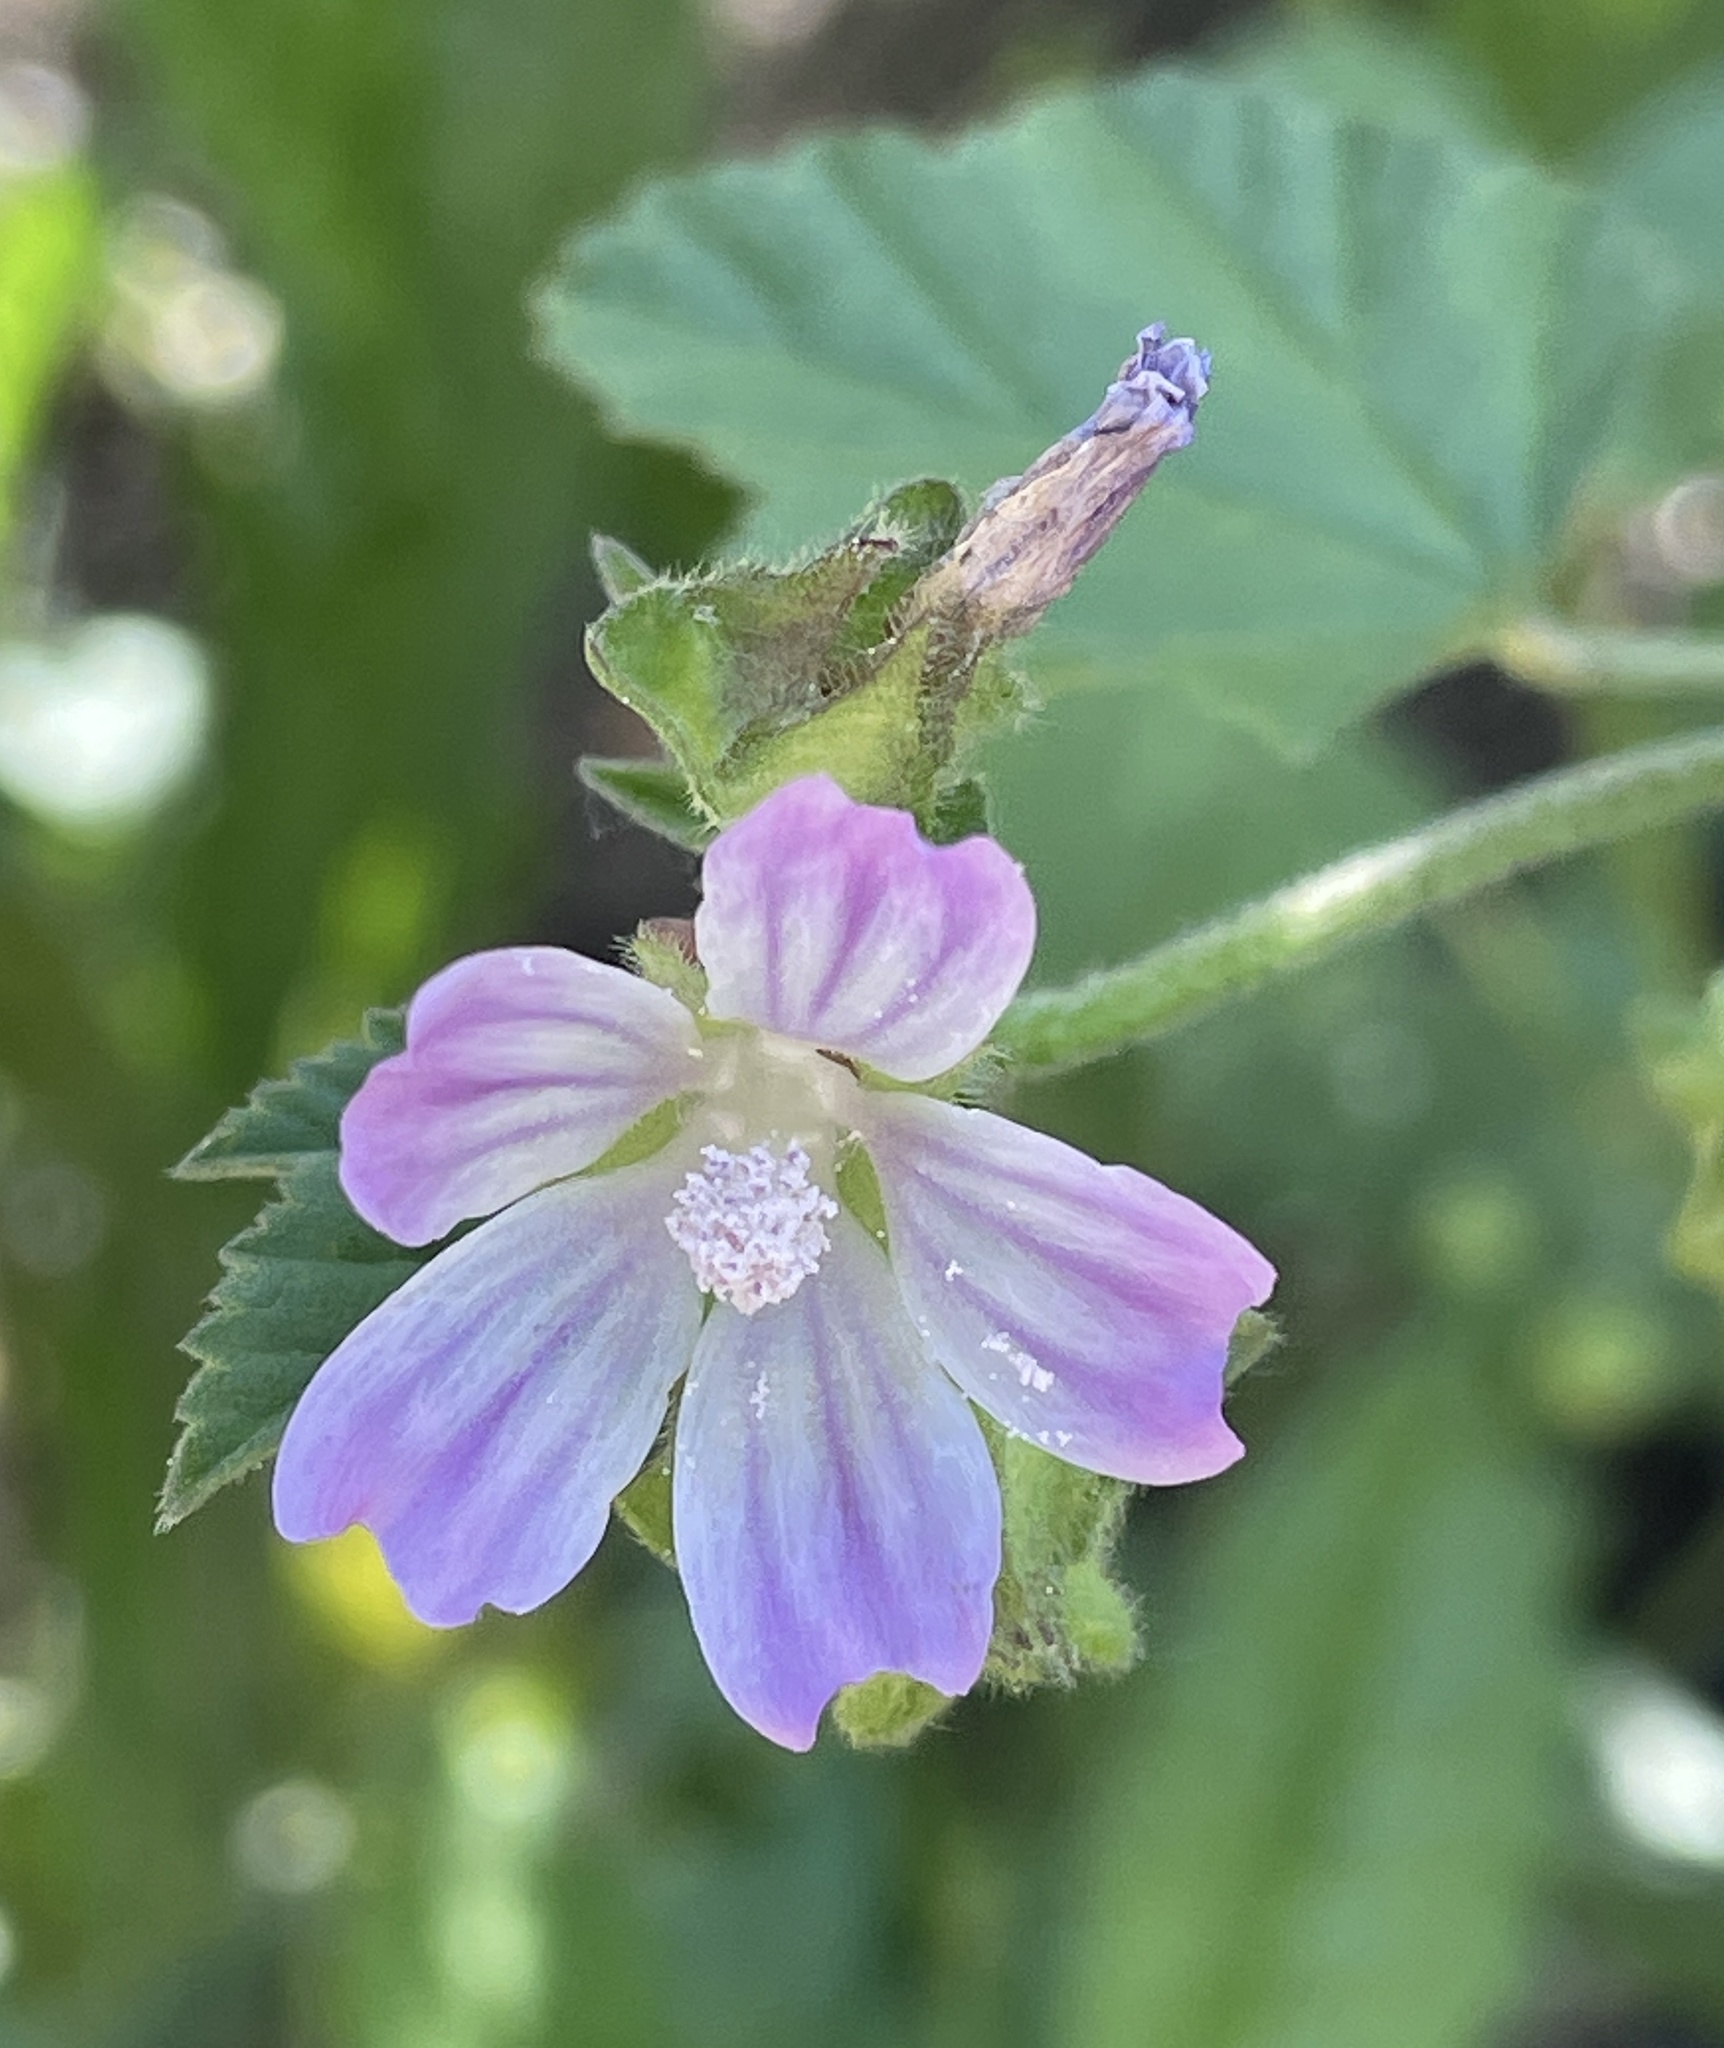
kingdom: Plantae
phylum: Tracheophyta
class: Magnoliopsida
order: Malvales
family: Malvaceae
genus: Malva
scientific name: Malva multiflora
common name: Cheeseweed
